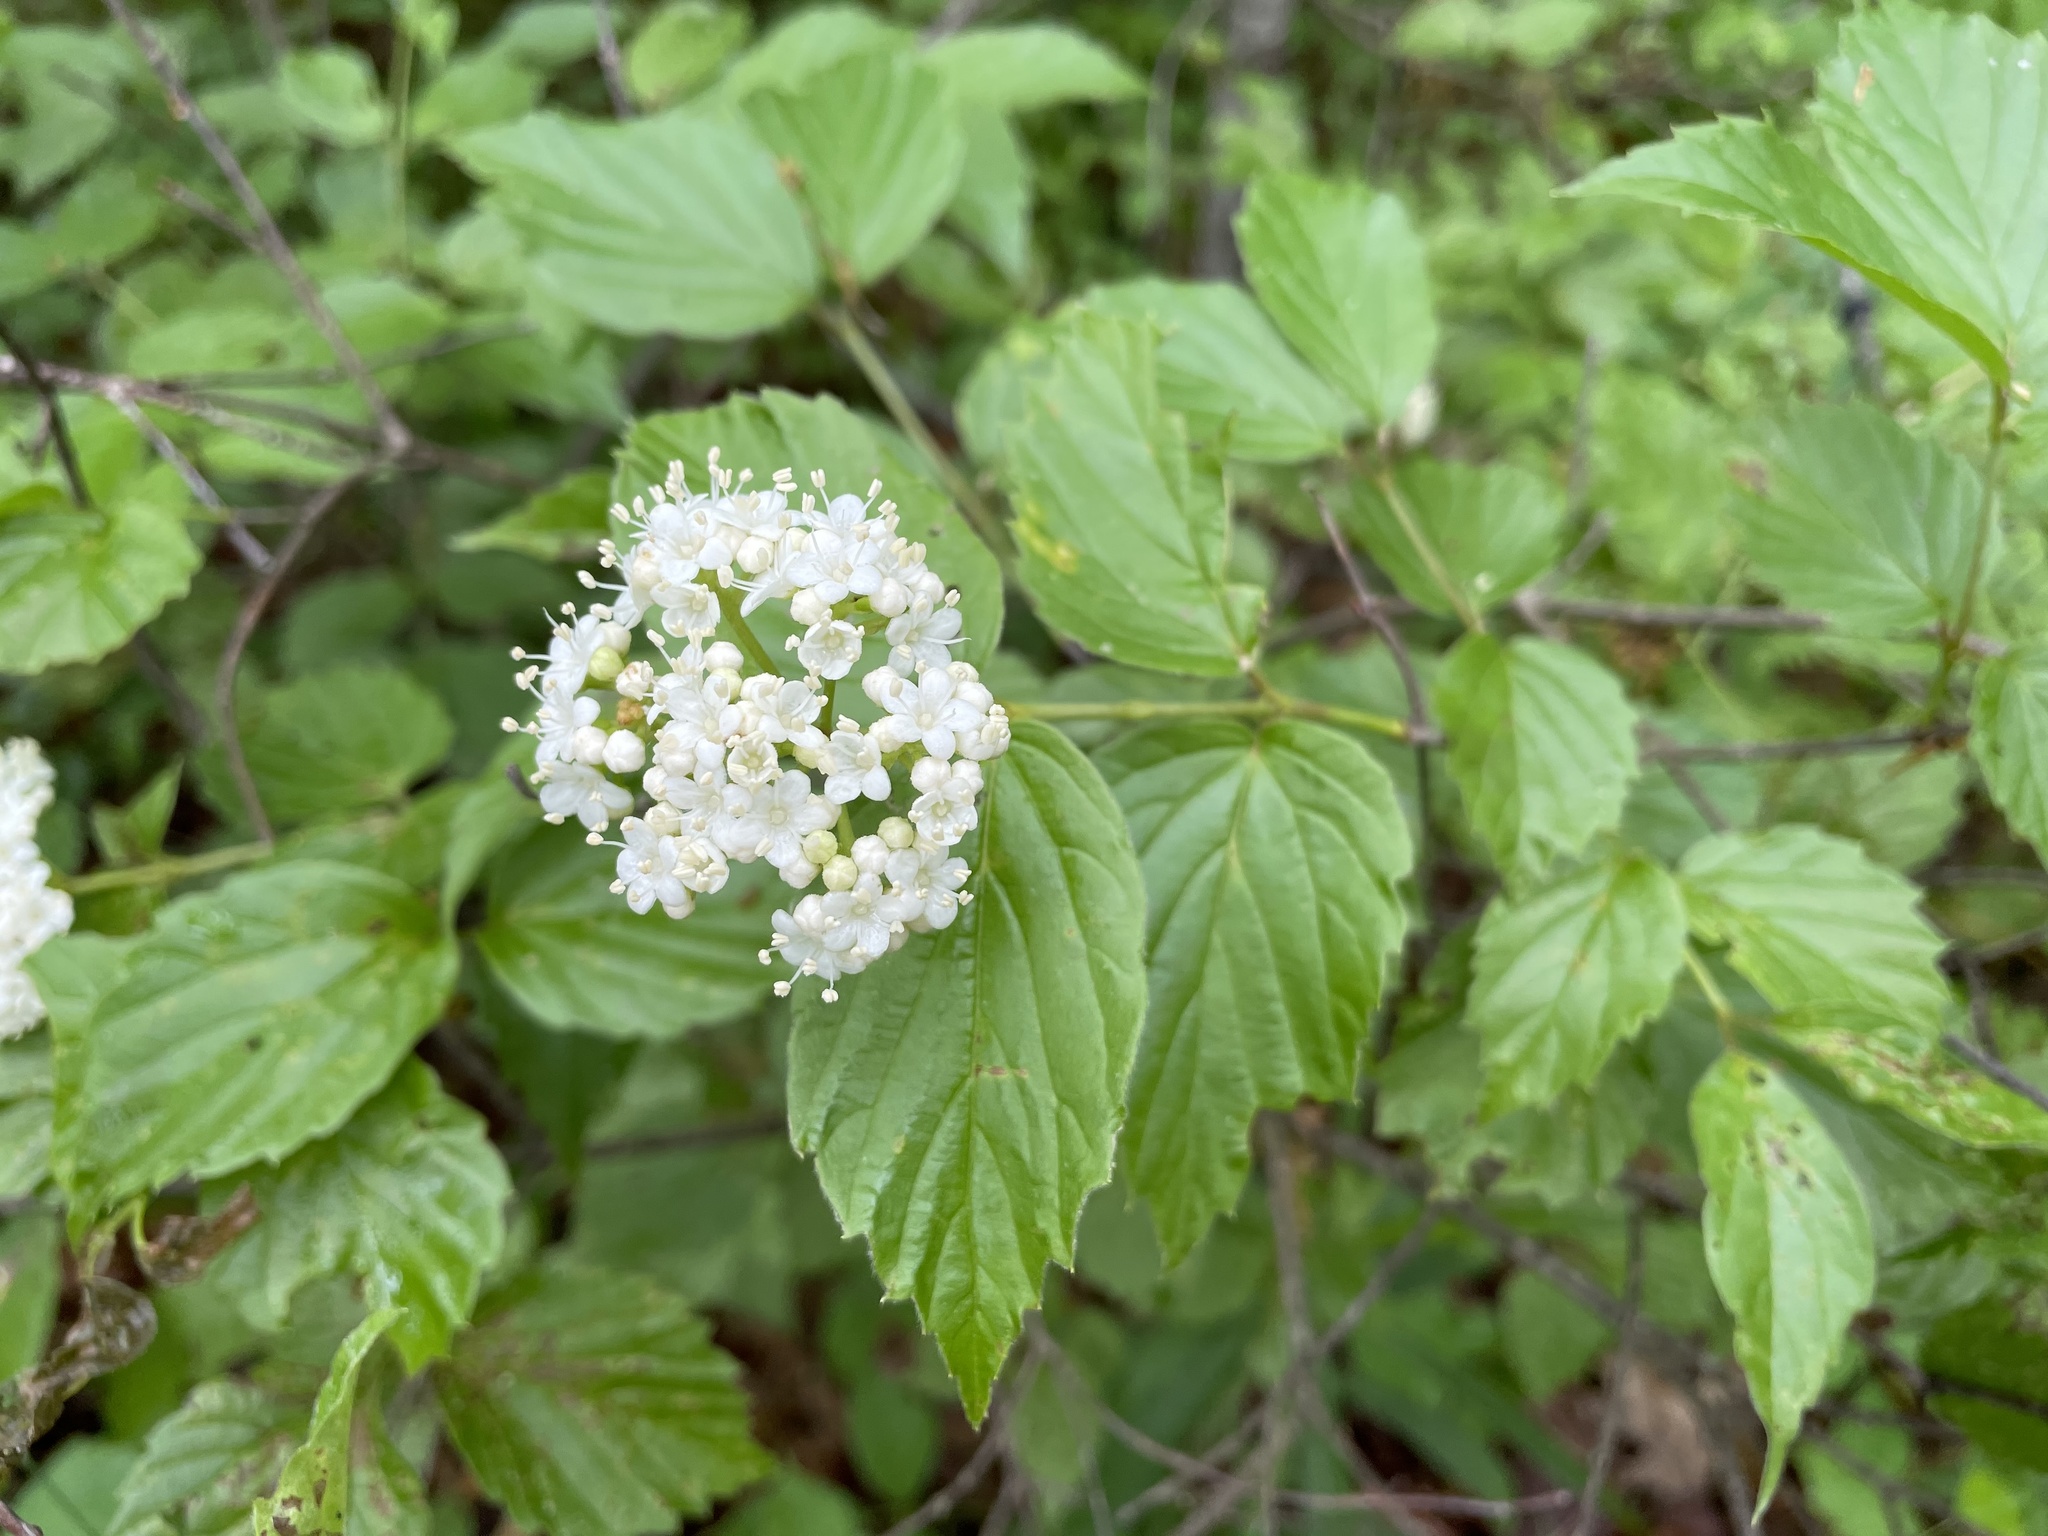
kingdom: Plantae
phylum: Tracheophyta
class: Magnoliopsida
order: Dipsacales
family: Viburnaceae
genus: Viburnum
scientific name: Viburnum rafinesqueanum
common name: Downy arrow-wood
